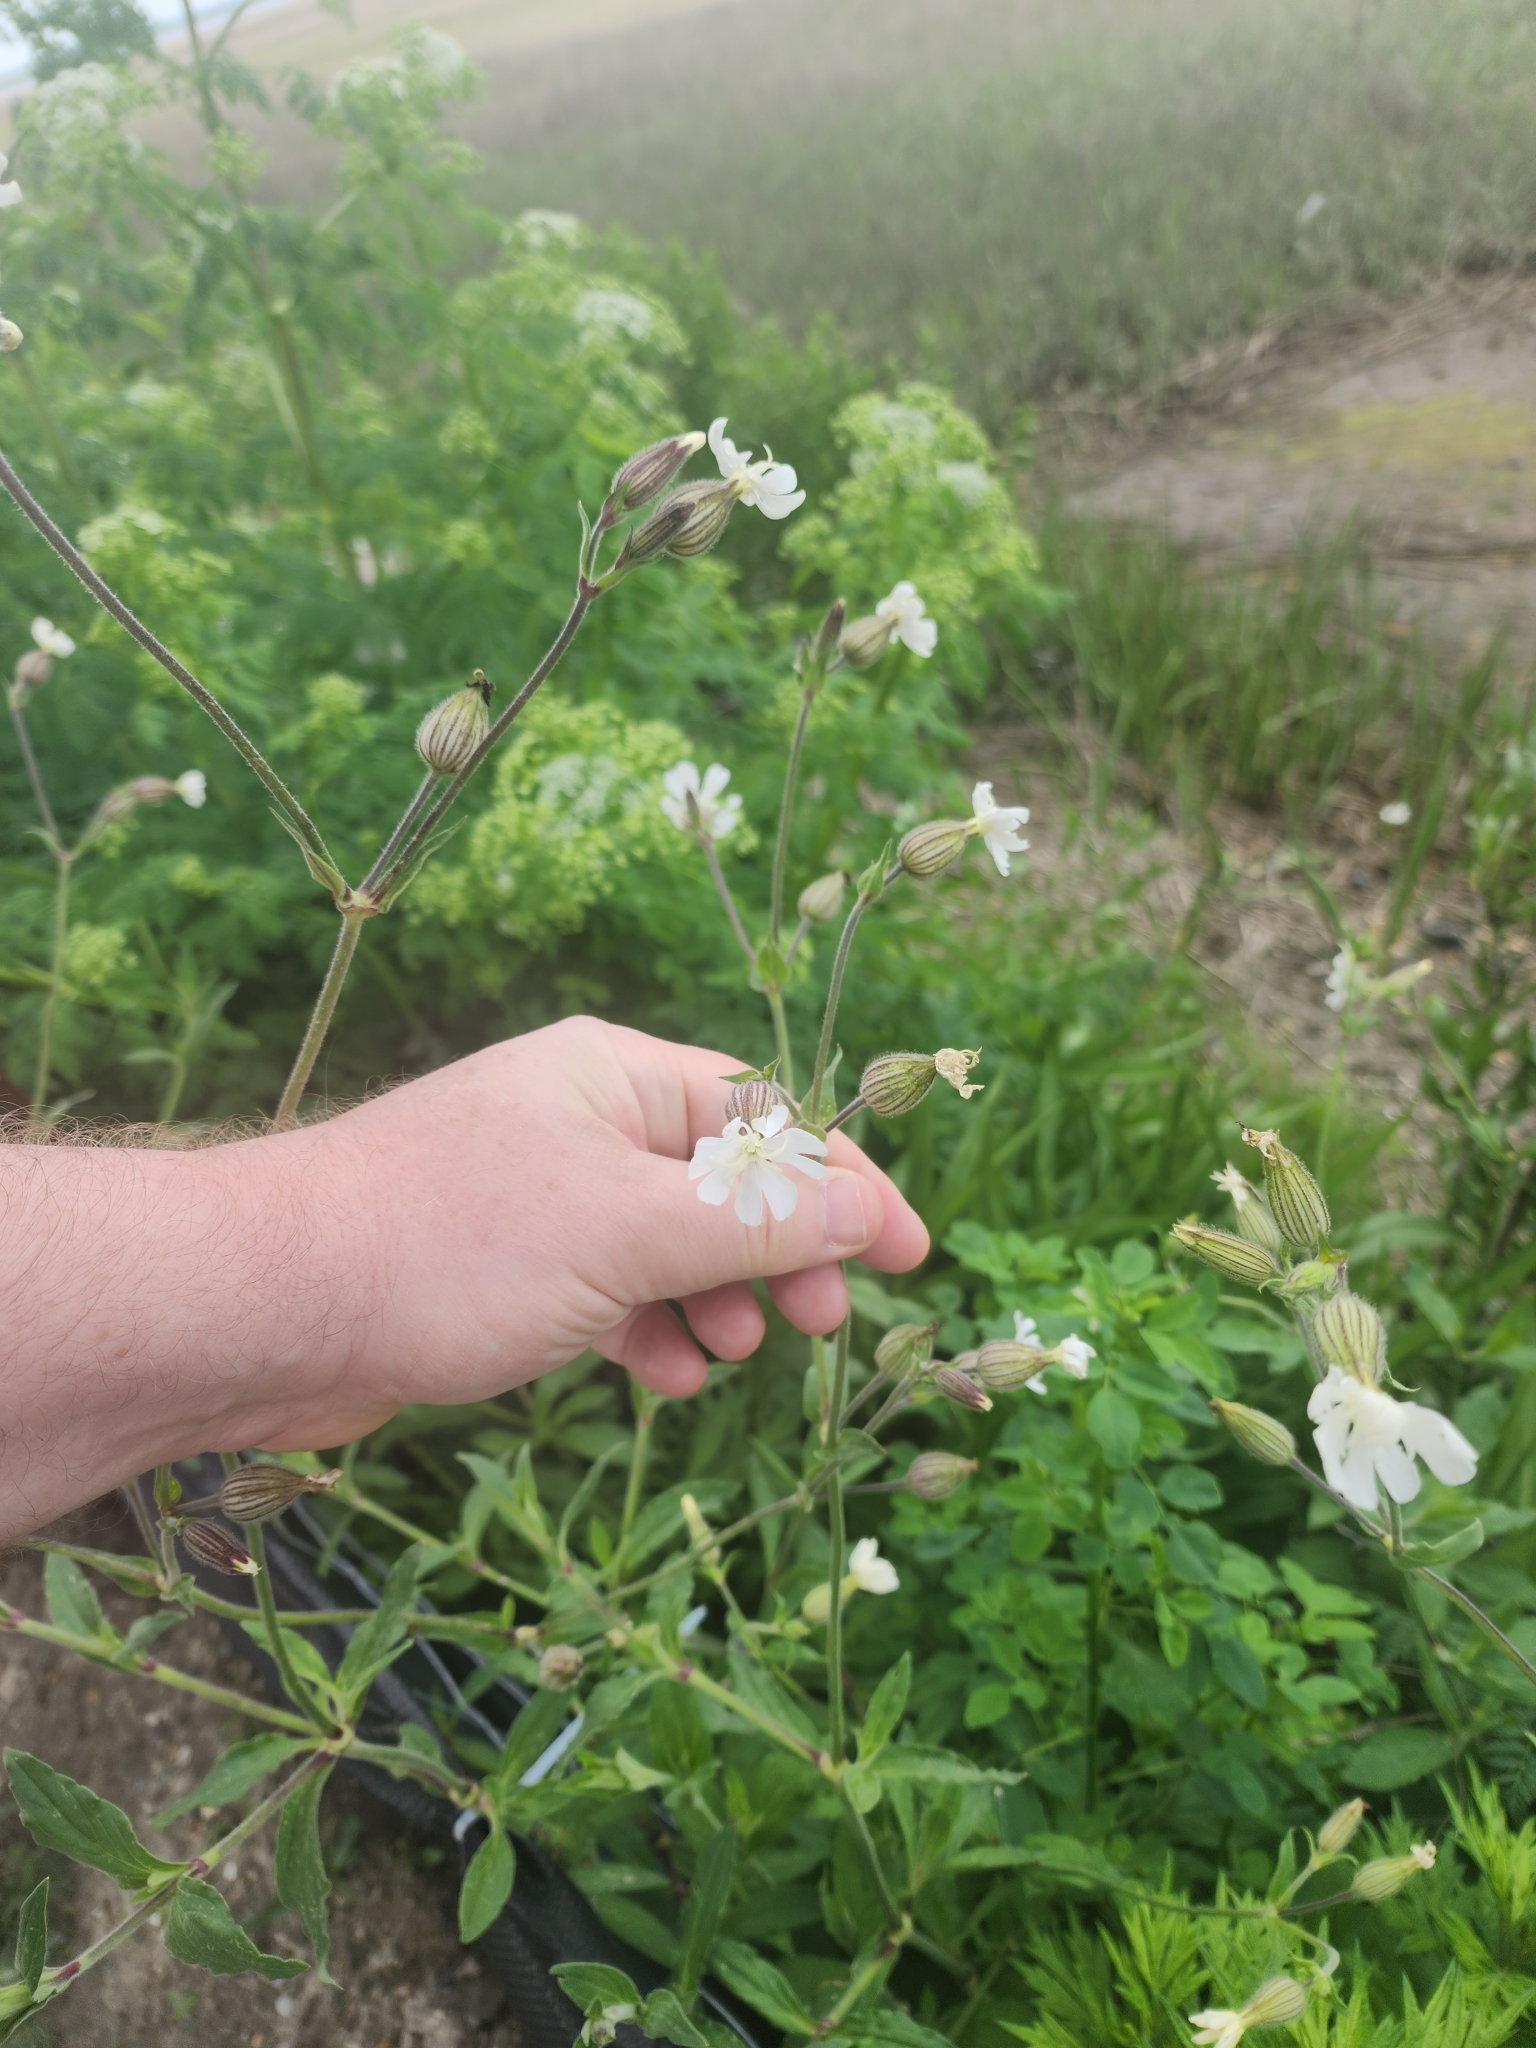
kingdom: Plantae
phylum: Tracheophyta
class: Magnoliopsida
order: Caryophyllales
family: Caryophyllaceae
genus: Silene
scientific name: Silene latifolia
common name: White campion
